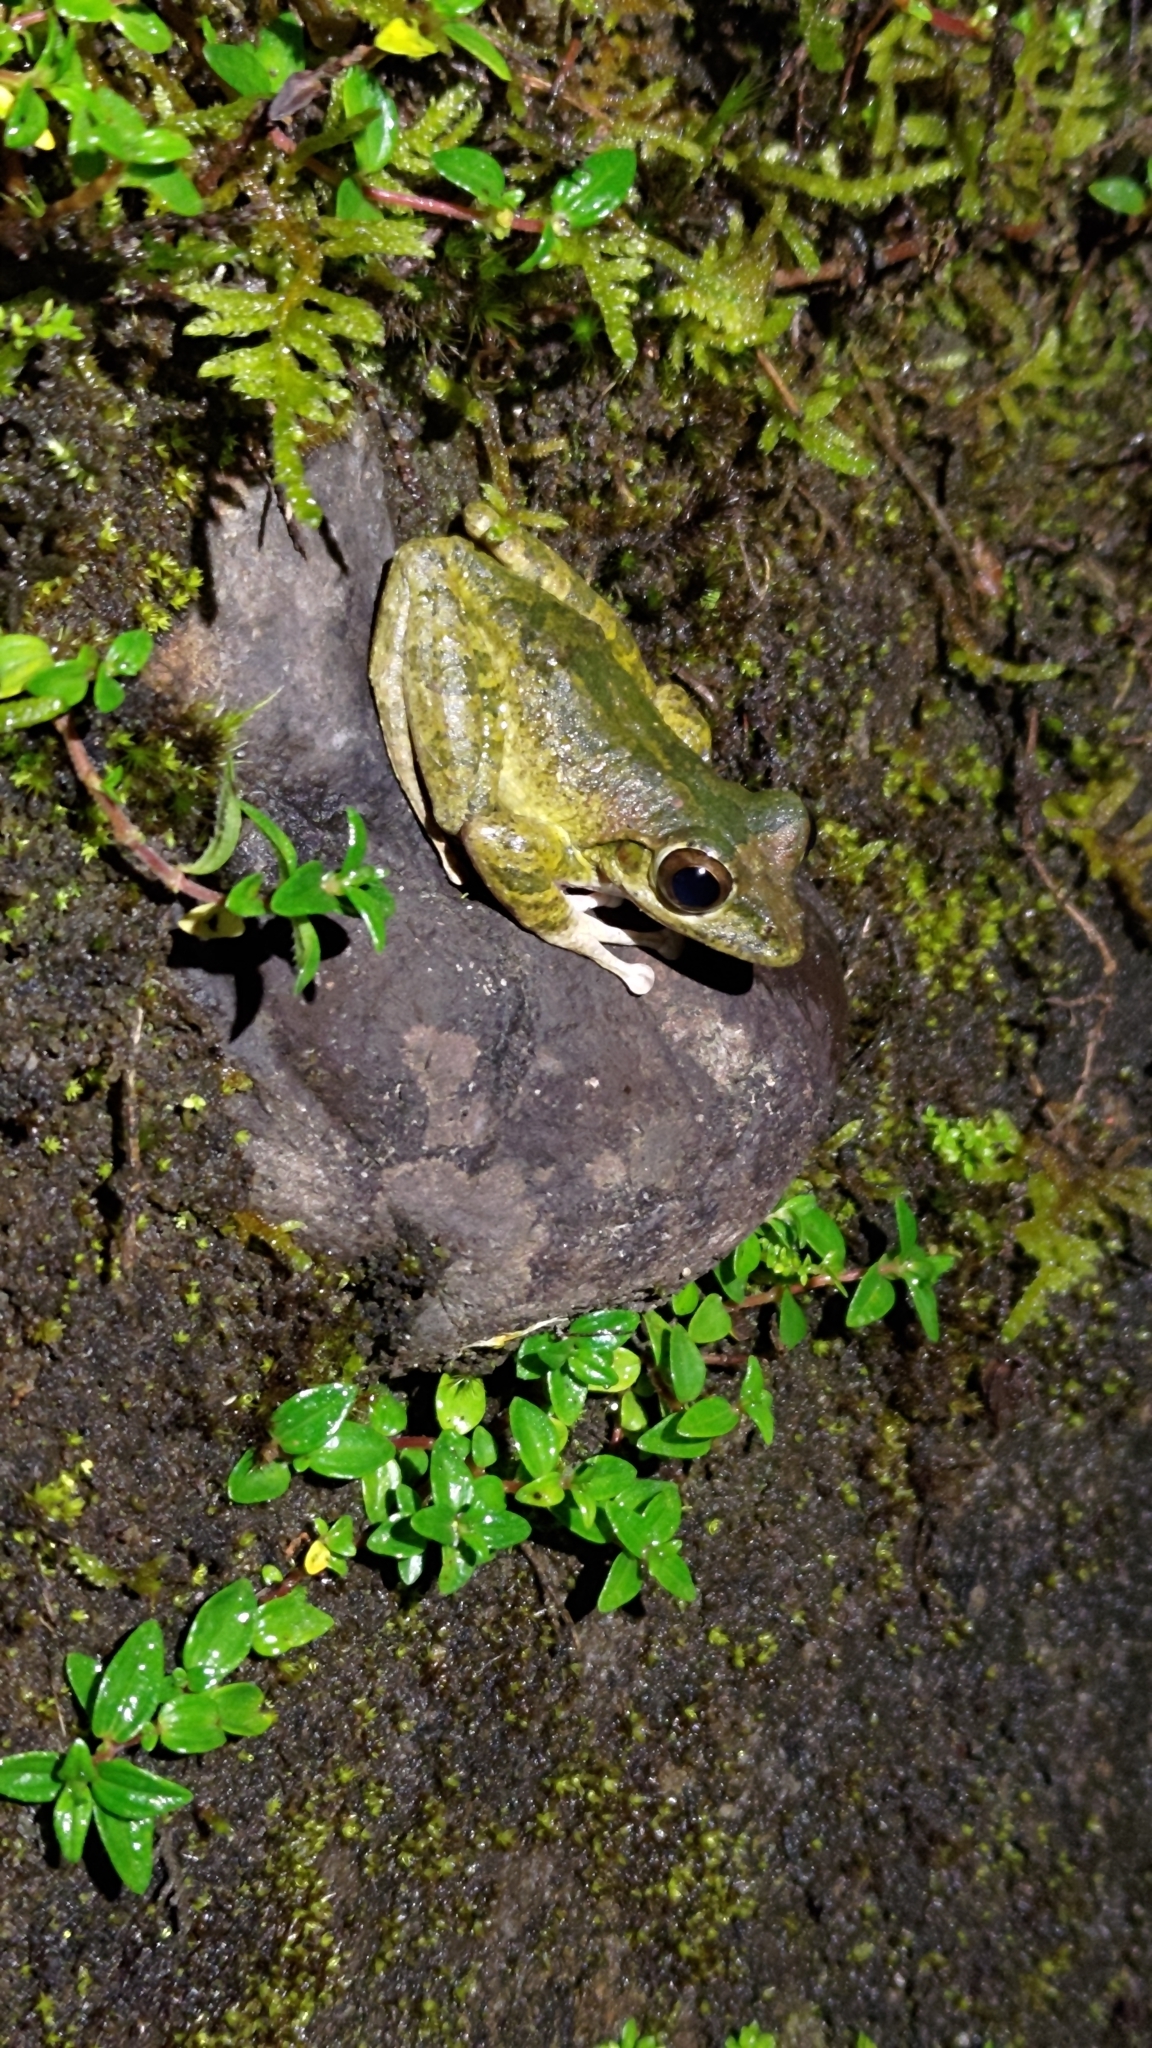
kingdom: Animalia
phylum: Chordata
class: Amphibia
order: Anura
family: Rhacophoridae
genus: Buergeria
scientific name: Buergeria robusta
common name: Brown treefrog
